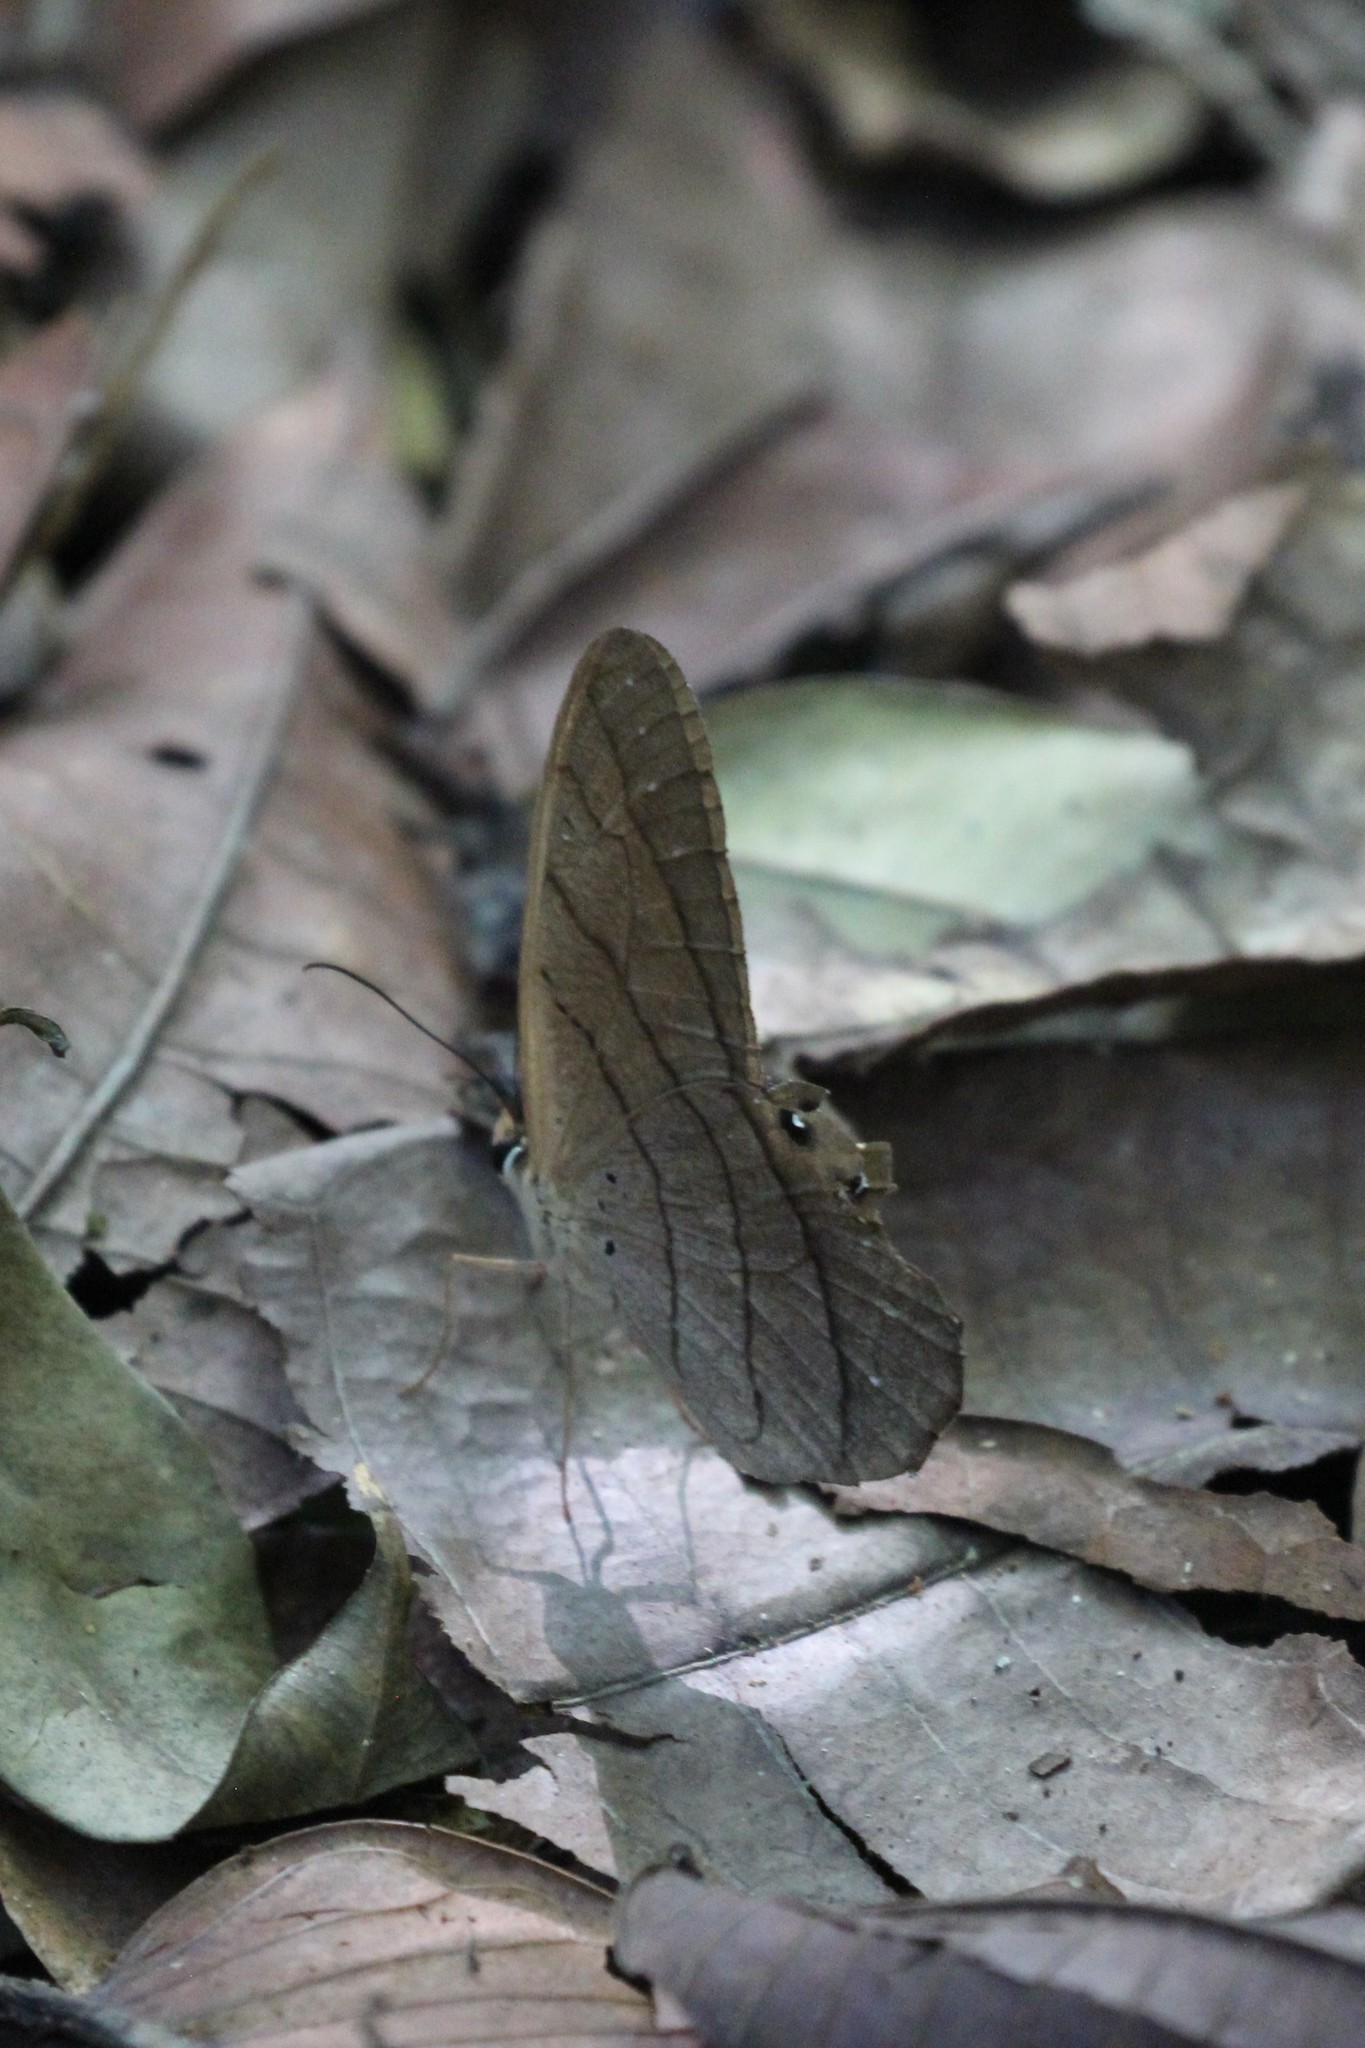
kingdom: Animalia
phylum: Arthropoda
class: Insecta
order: Lepidoptera
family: Nymphalidae
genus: Pierella
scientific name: Pierella luna
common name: Moon satyr
